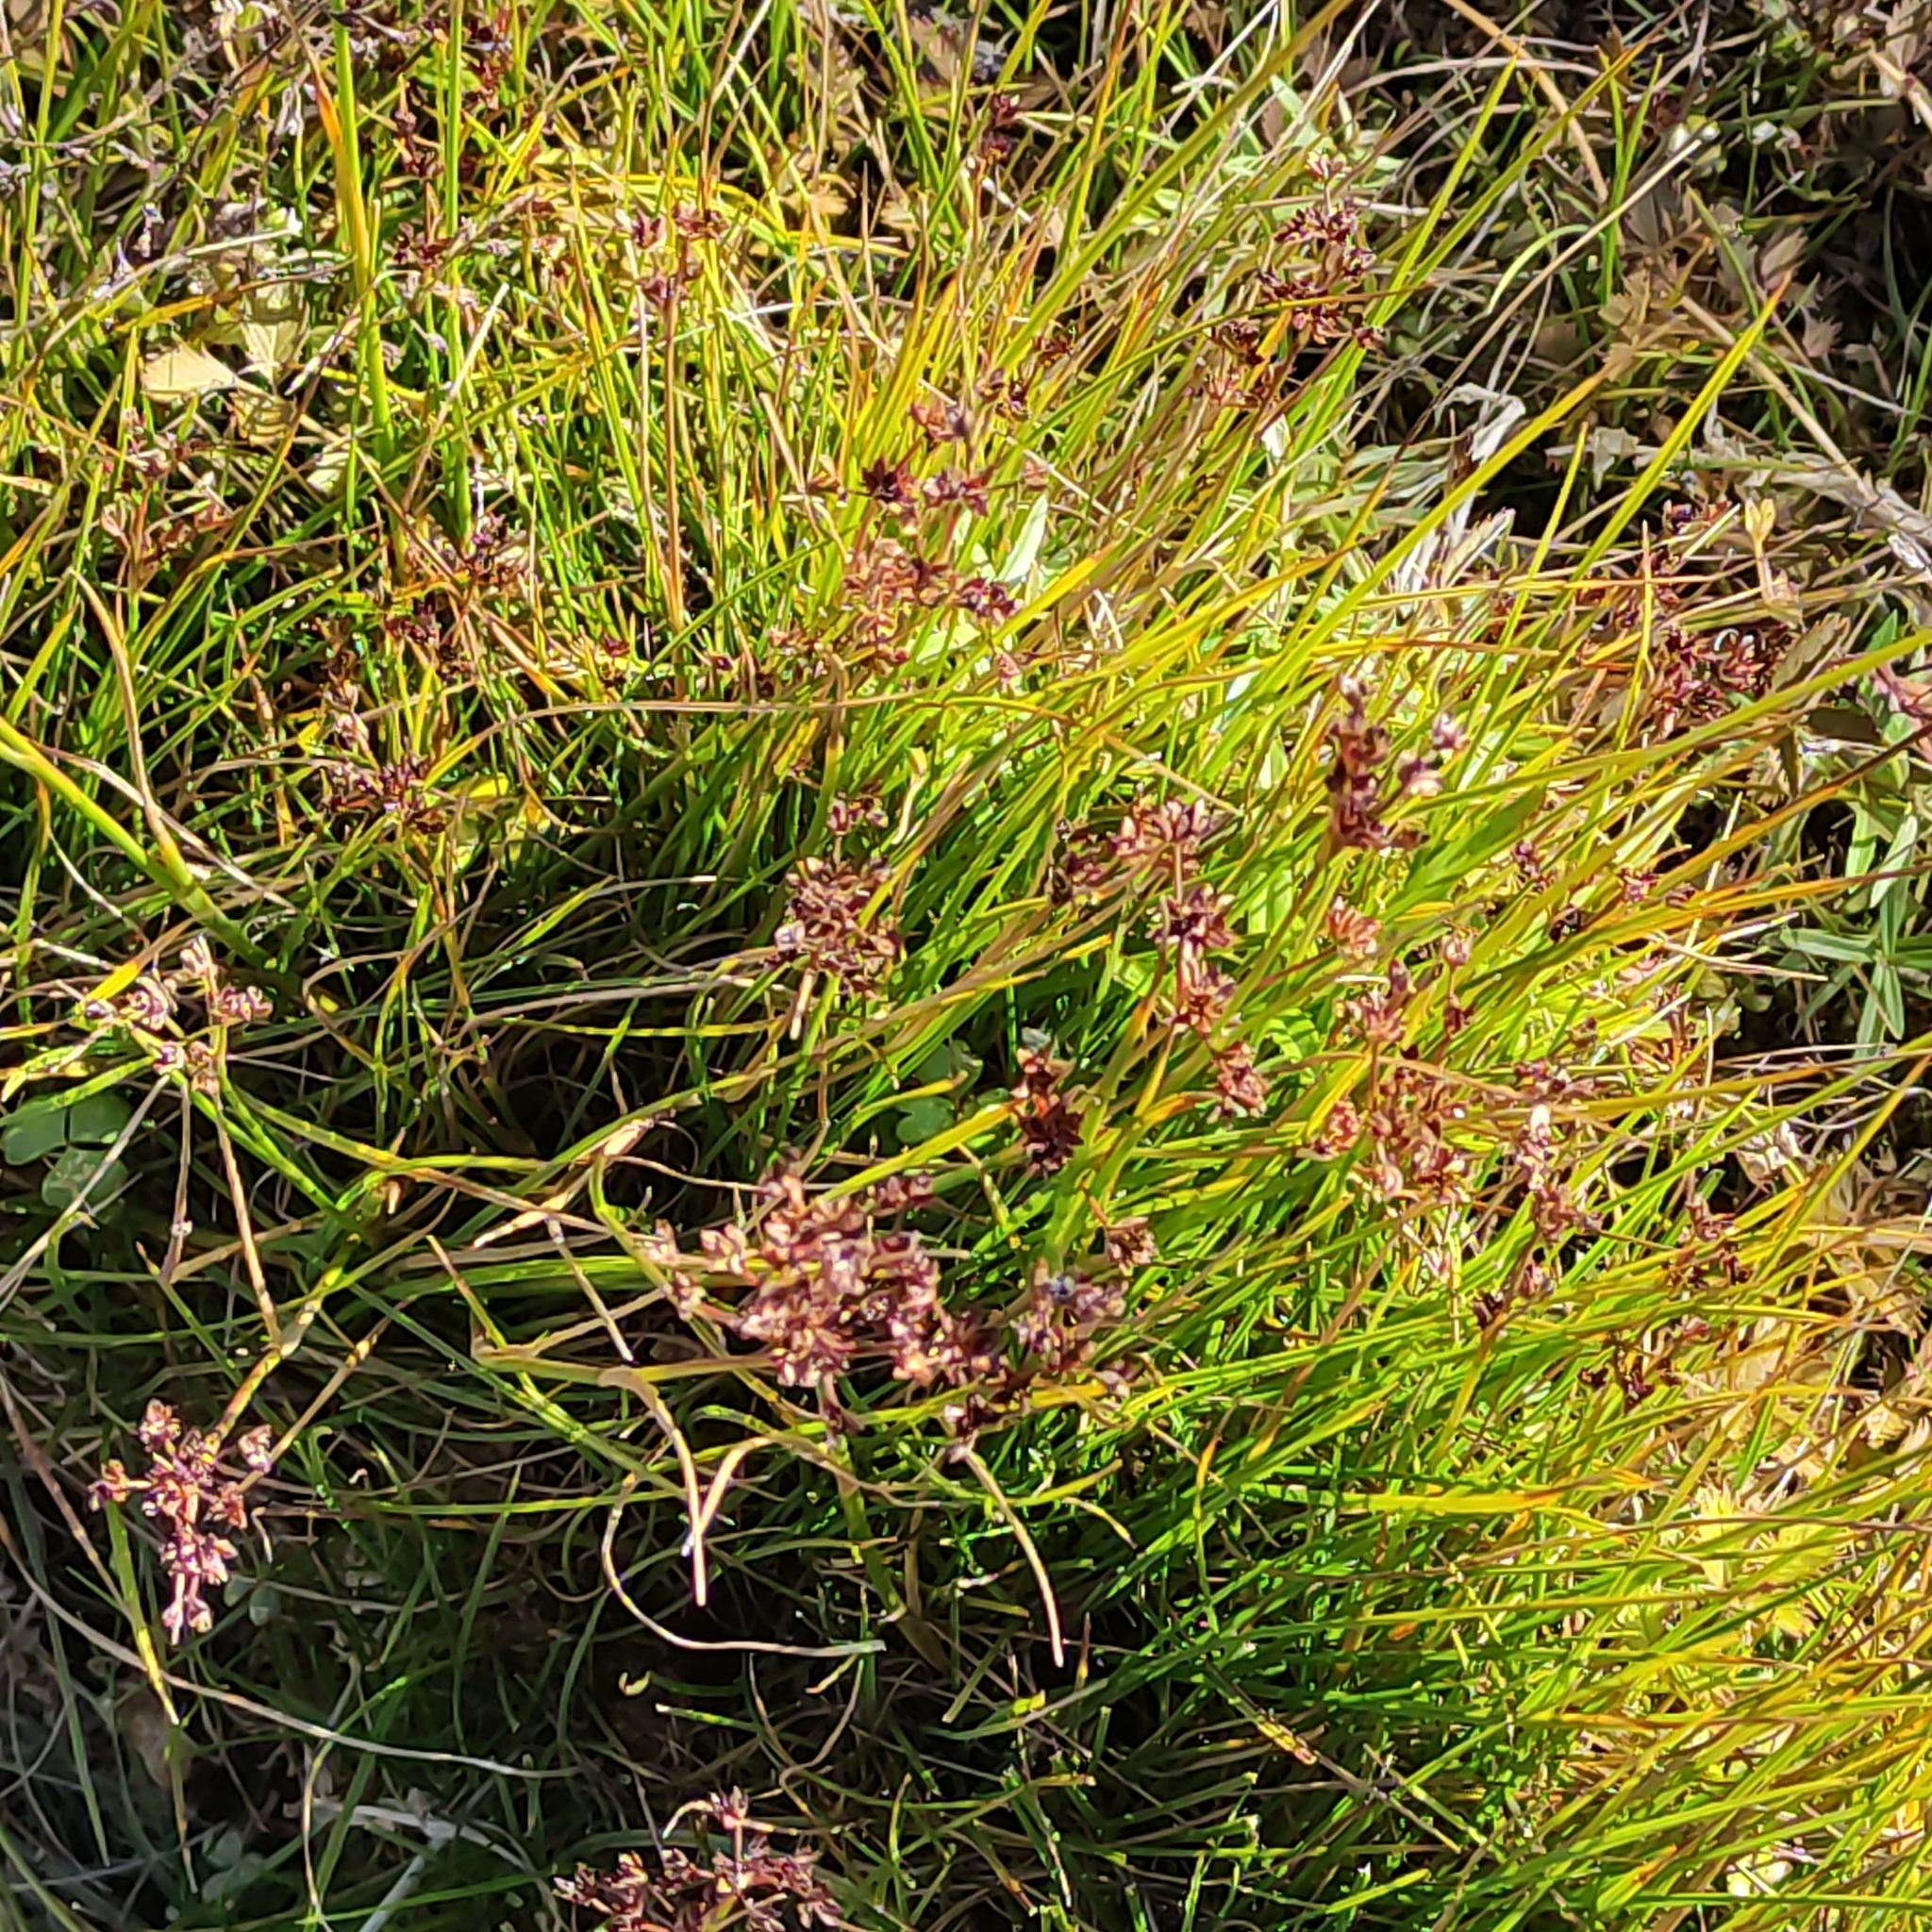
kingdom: Plantae
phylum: Tracheophyta
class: Liliopsida
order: Poales
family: Juncaceae
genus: Juncus
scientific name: Juncus articulatus
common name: Jointed rush
